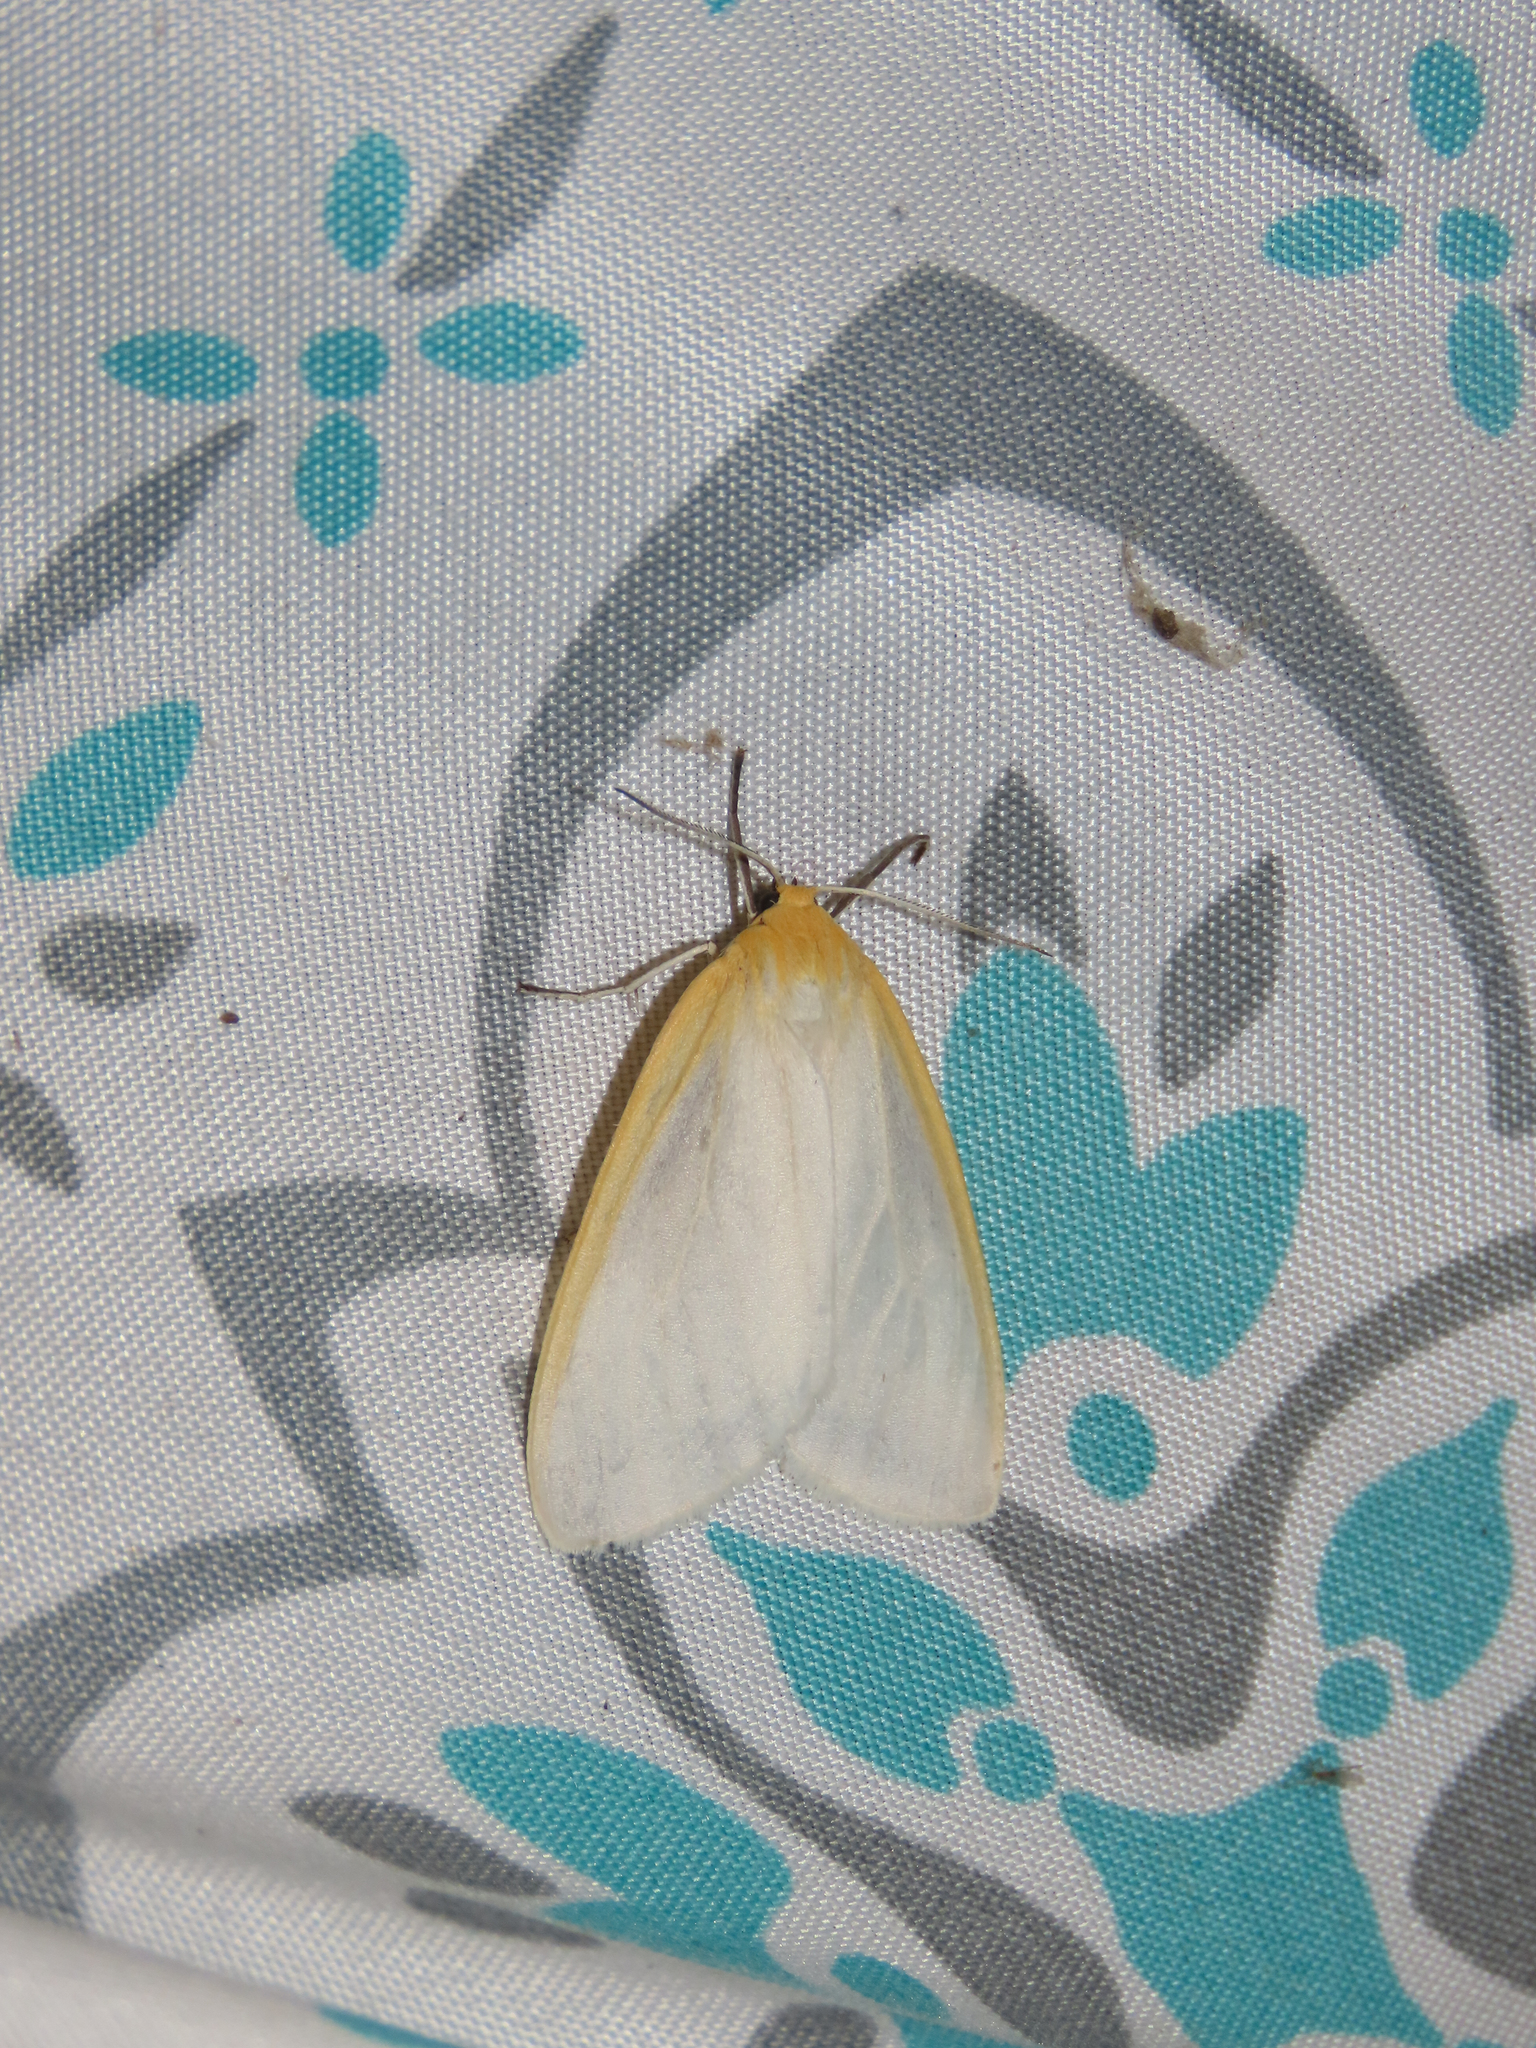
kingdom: Animalia
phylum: Arthropoda
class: Insecta
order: Lepidoptera
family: Erebidae
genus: Cycnia
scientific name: Cycnia tenera
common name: Delicate cycnia moth
